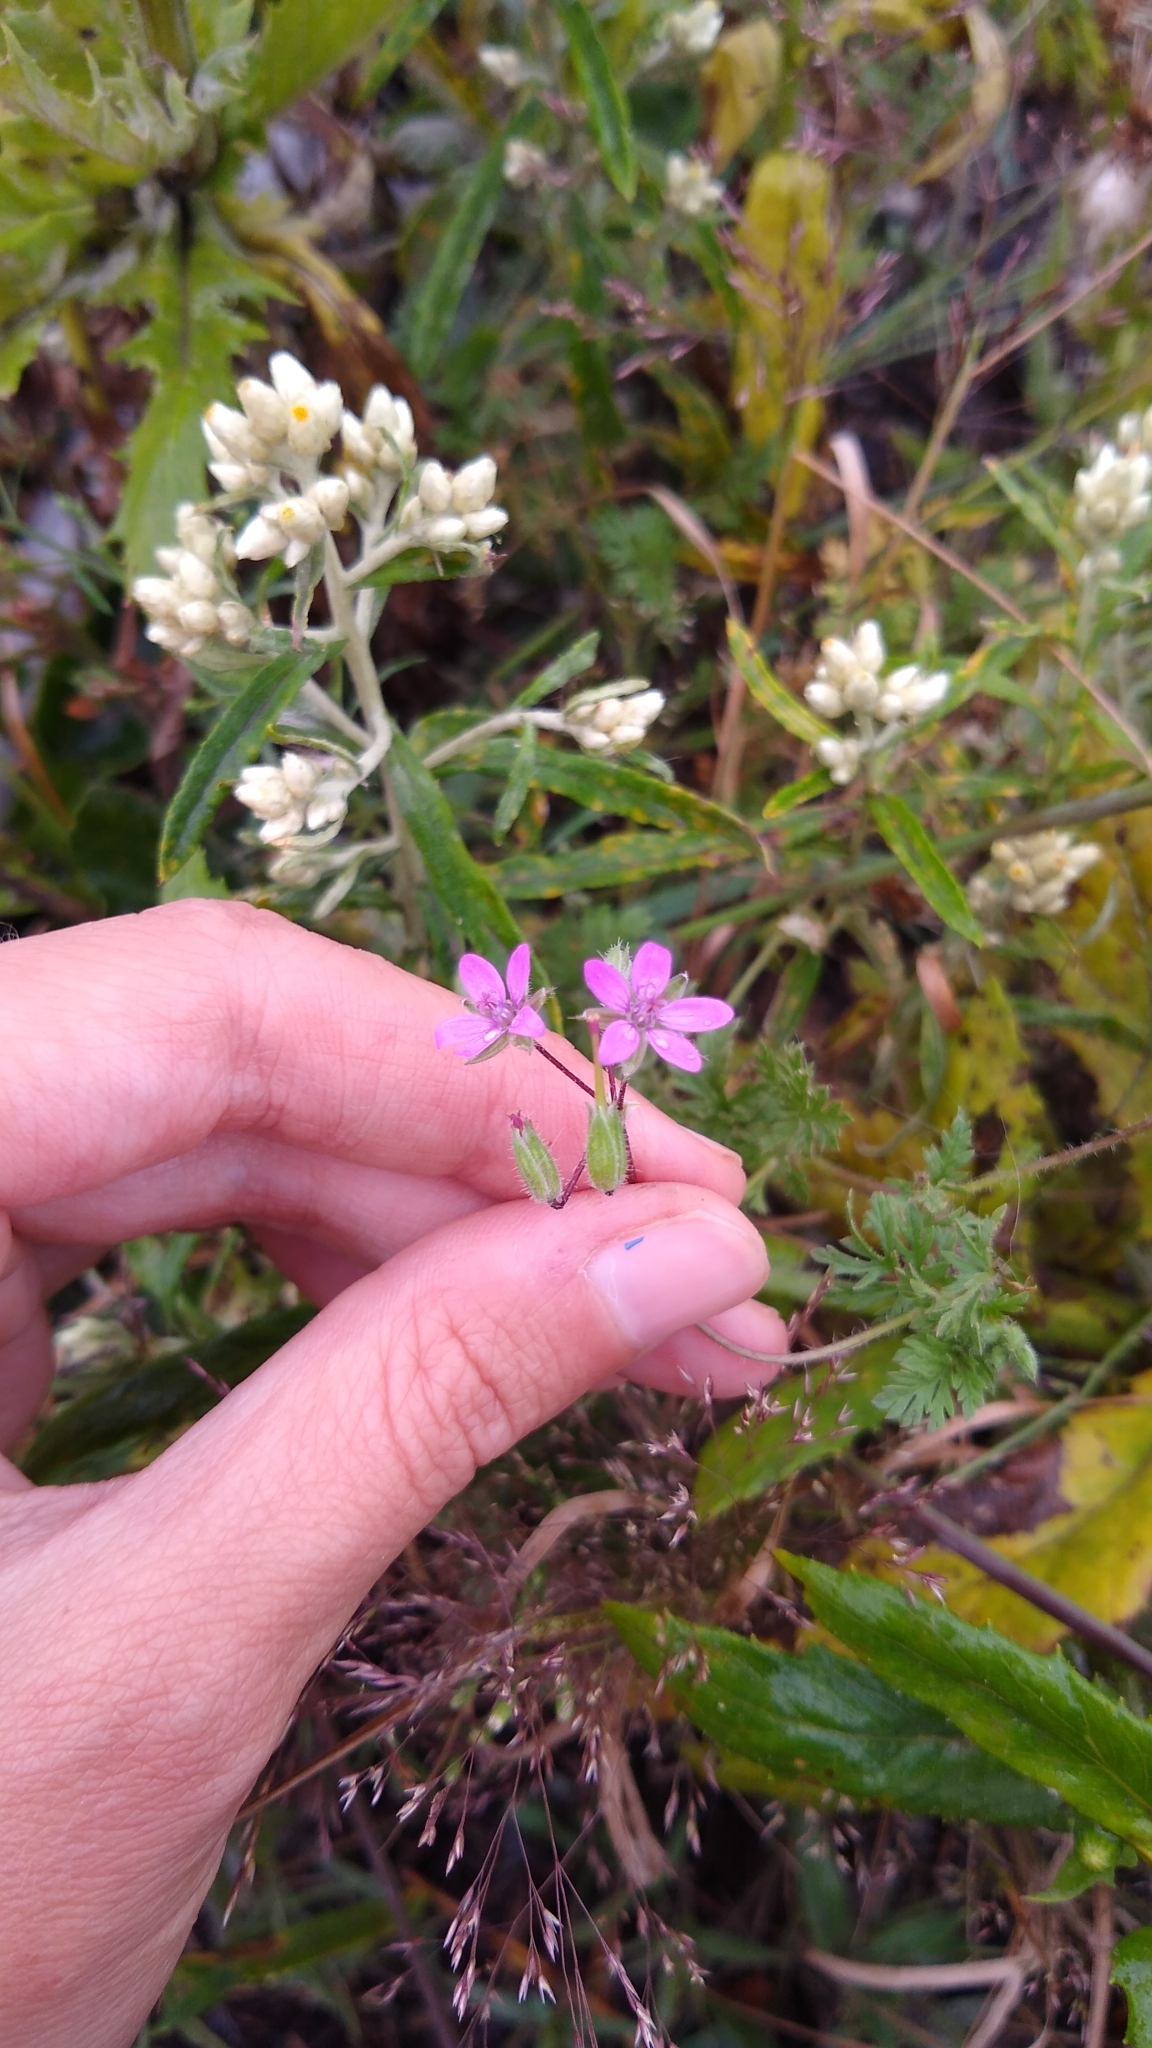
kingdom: Plantae
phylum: Tracheophyta
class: Magnoliopsida
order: Geraniales
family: Geraniaceae
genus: Erodium
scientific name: Erodium cicutarium
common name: Common stork's-bill
